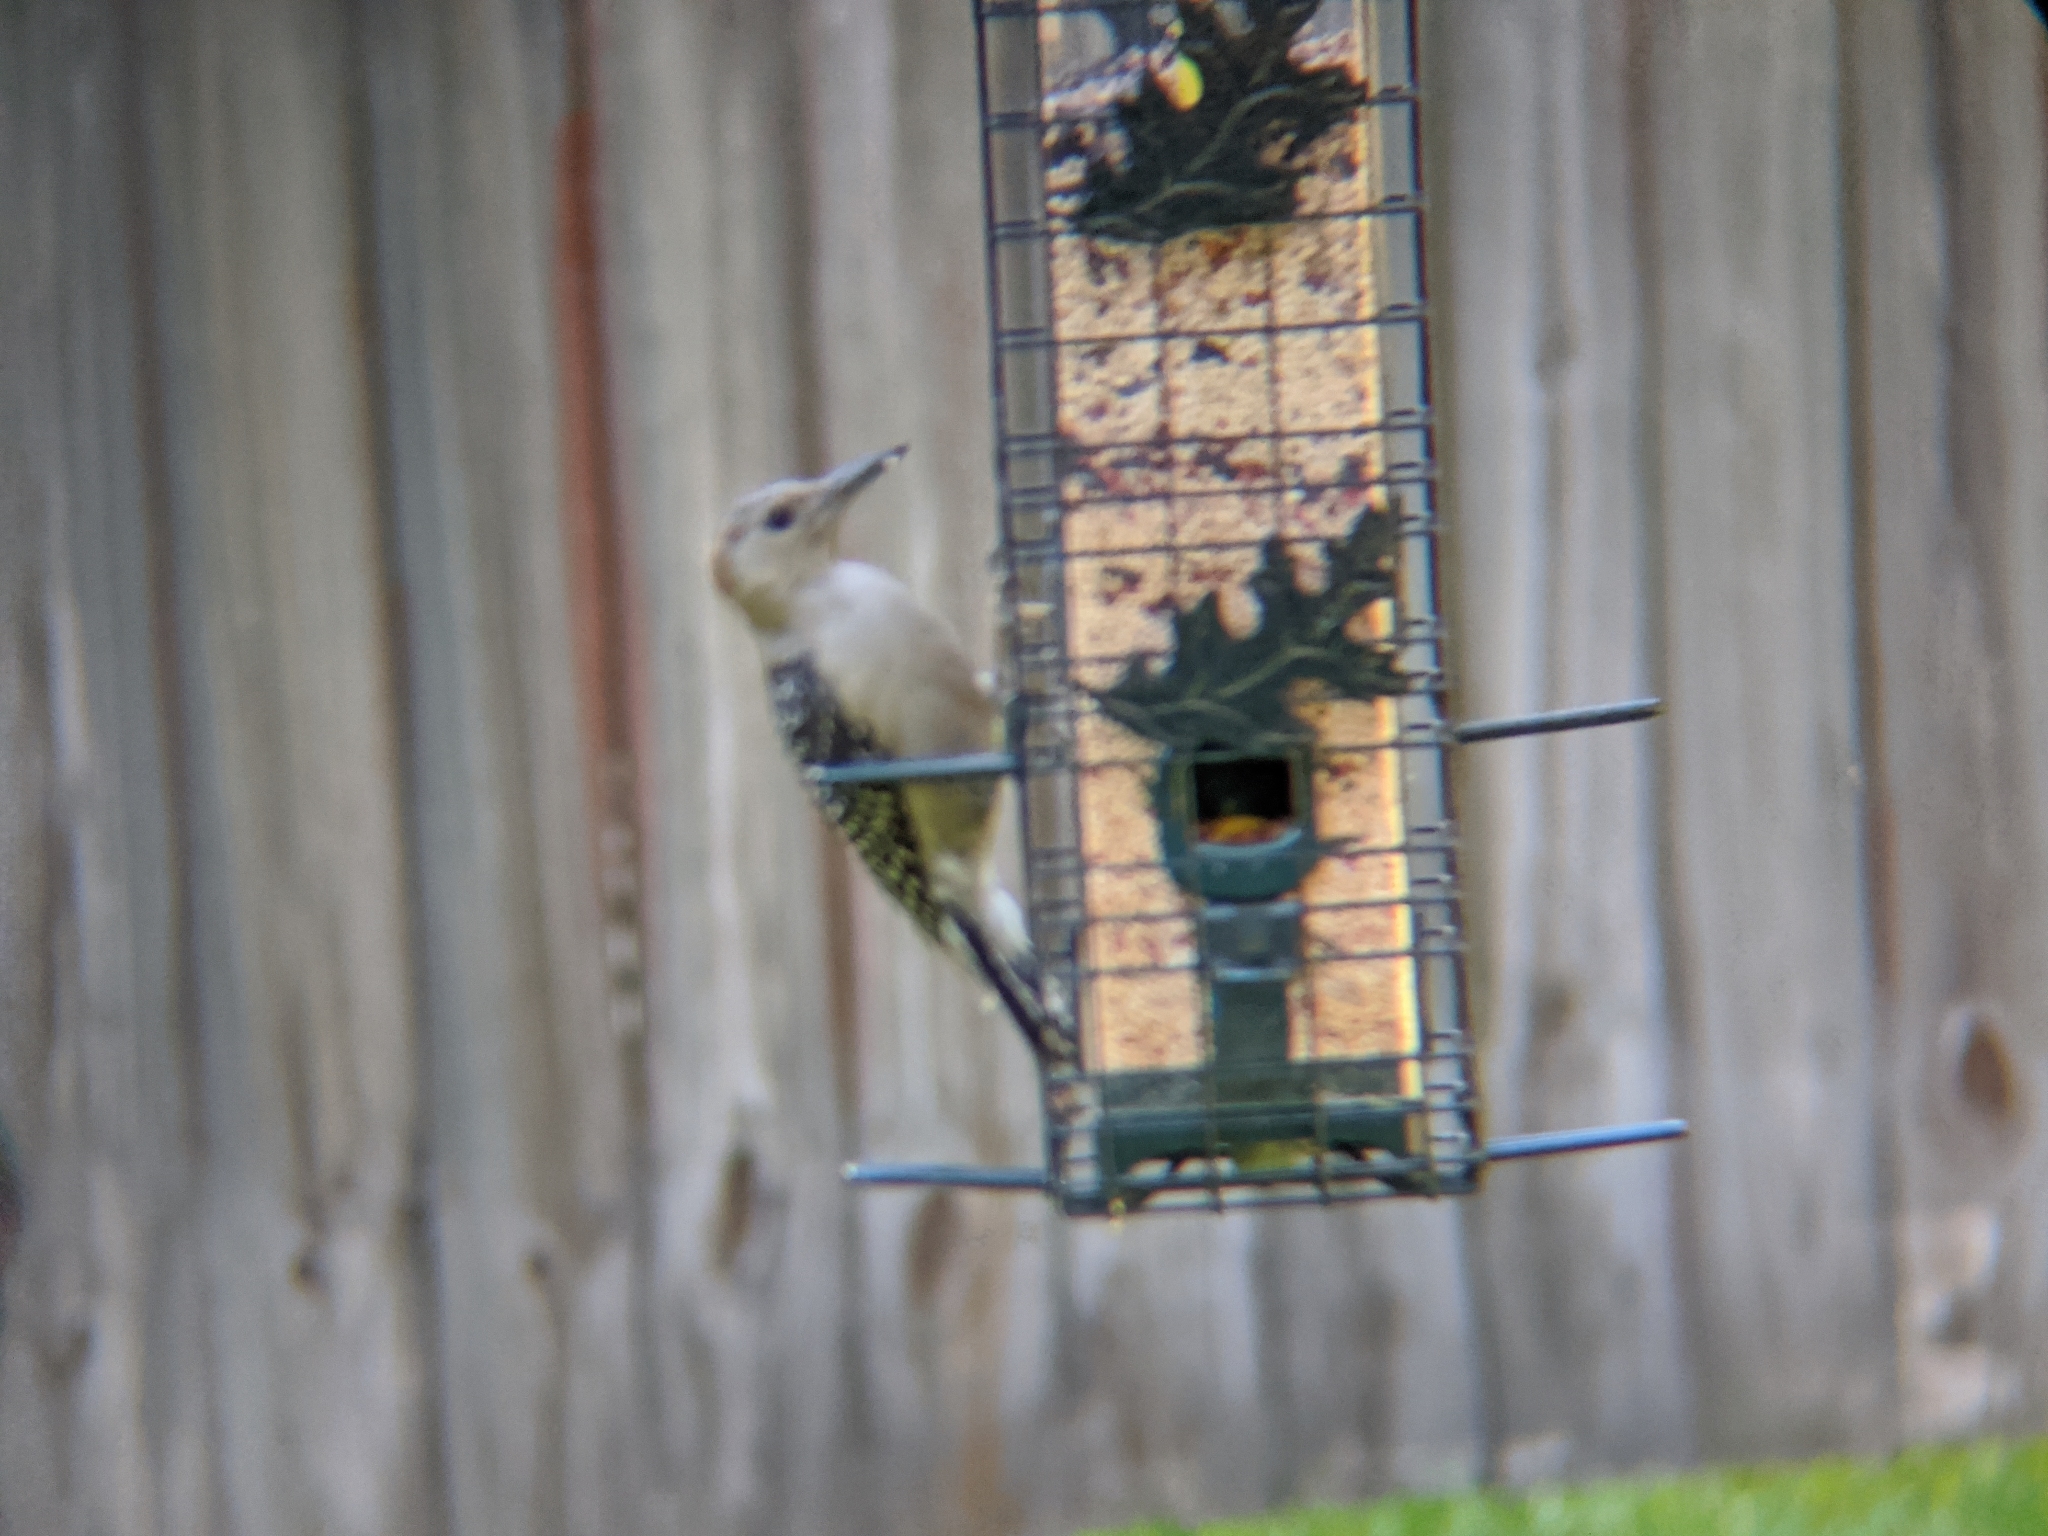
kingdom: Animalia
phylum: Chordata
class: Aves
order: Piciformes
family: Picidae
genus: Melanerpes
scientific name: Melanerpes carolinus
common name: Red-bellied woodpecker
